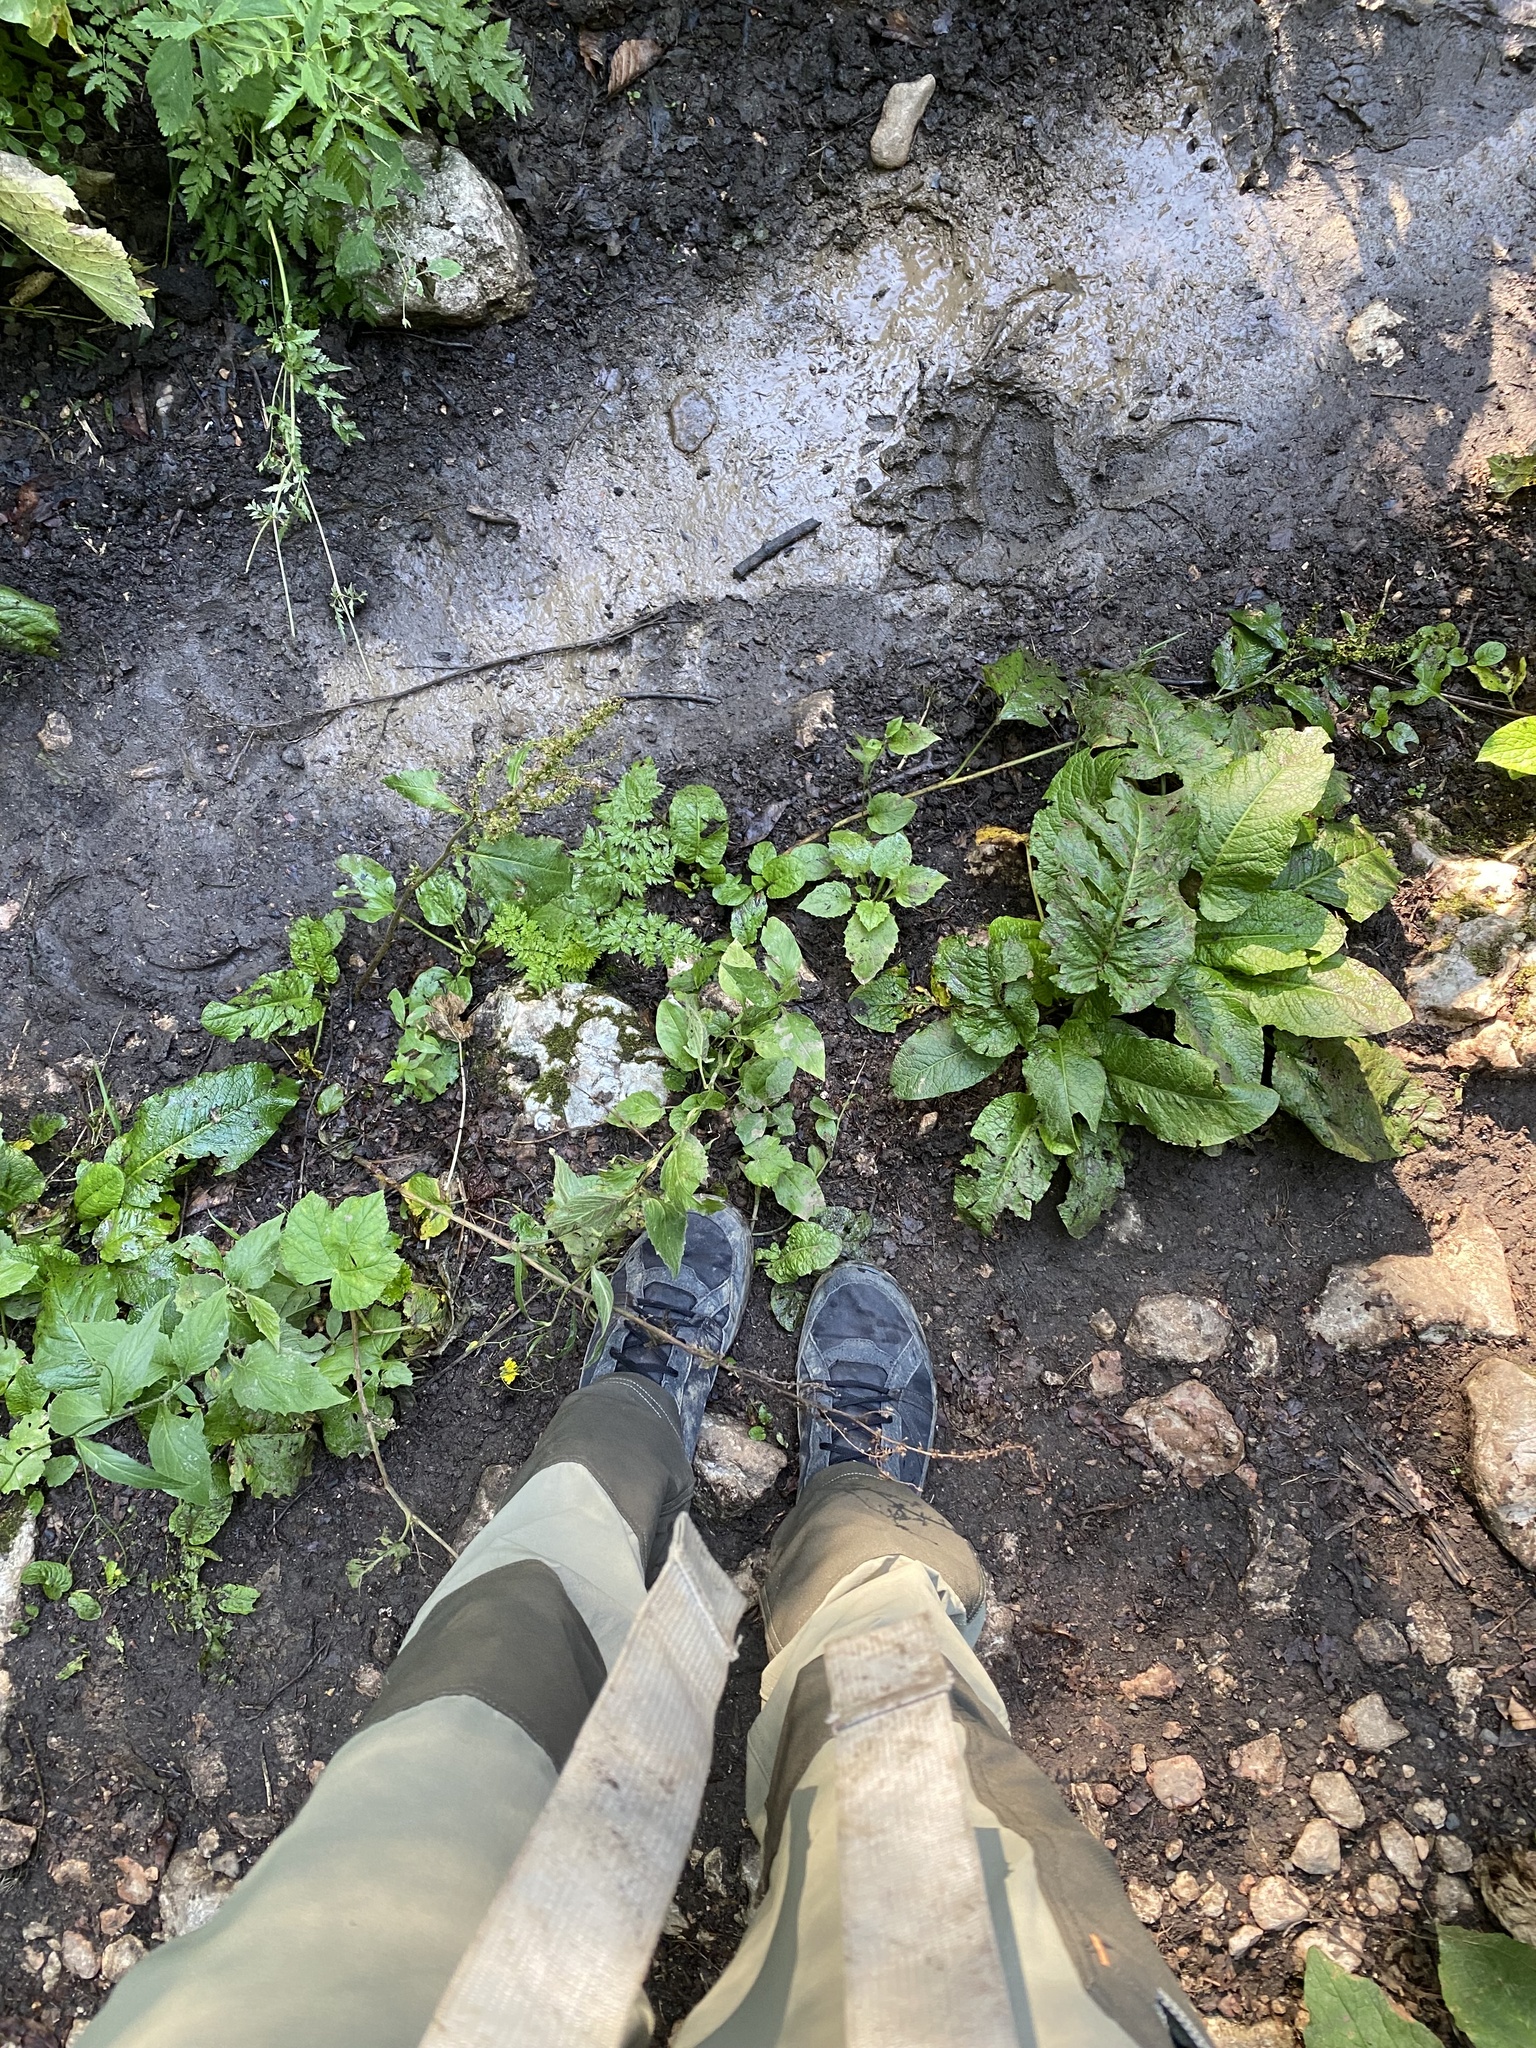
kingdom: Animalia
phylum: Chordata
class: Mammalia
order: Carnivora
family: Ursidae
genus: Ursus
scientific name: Ursus arctos
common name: Brown bear
